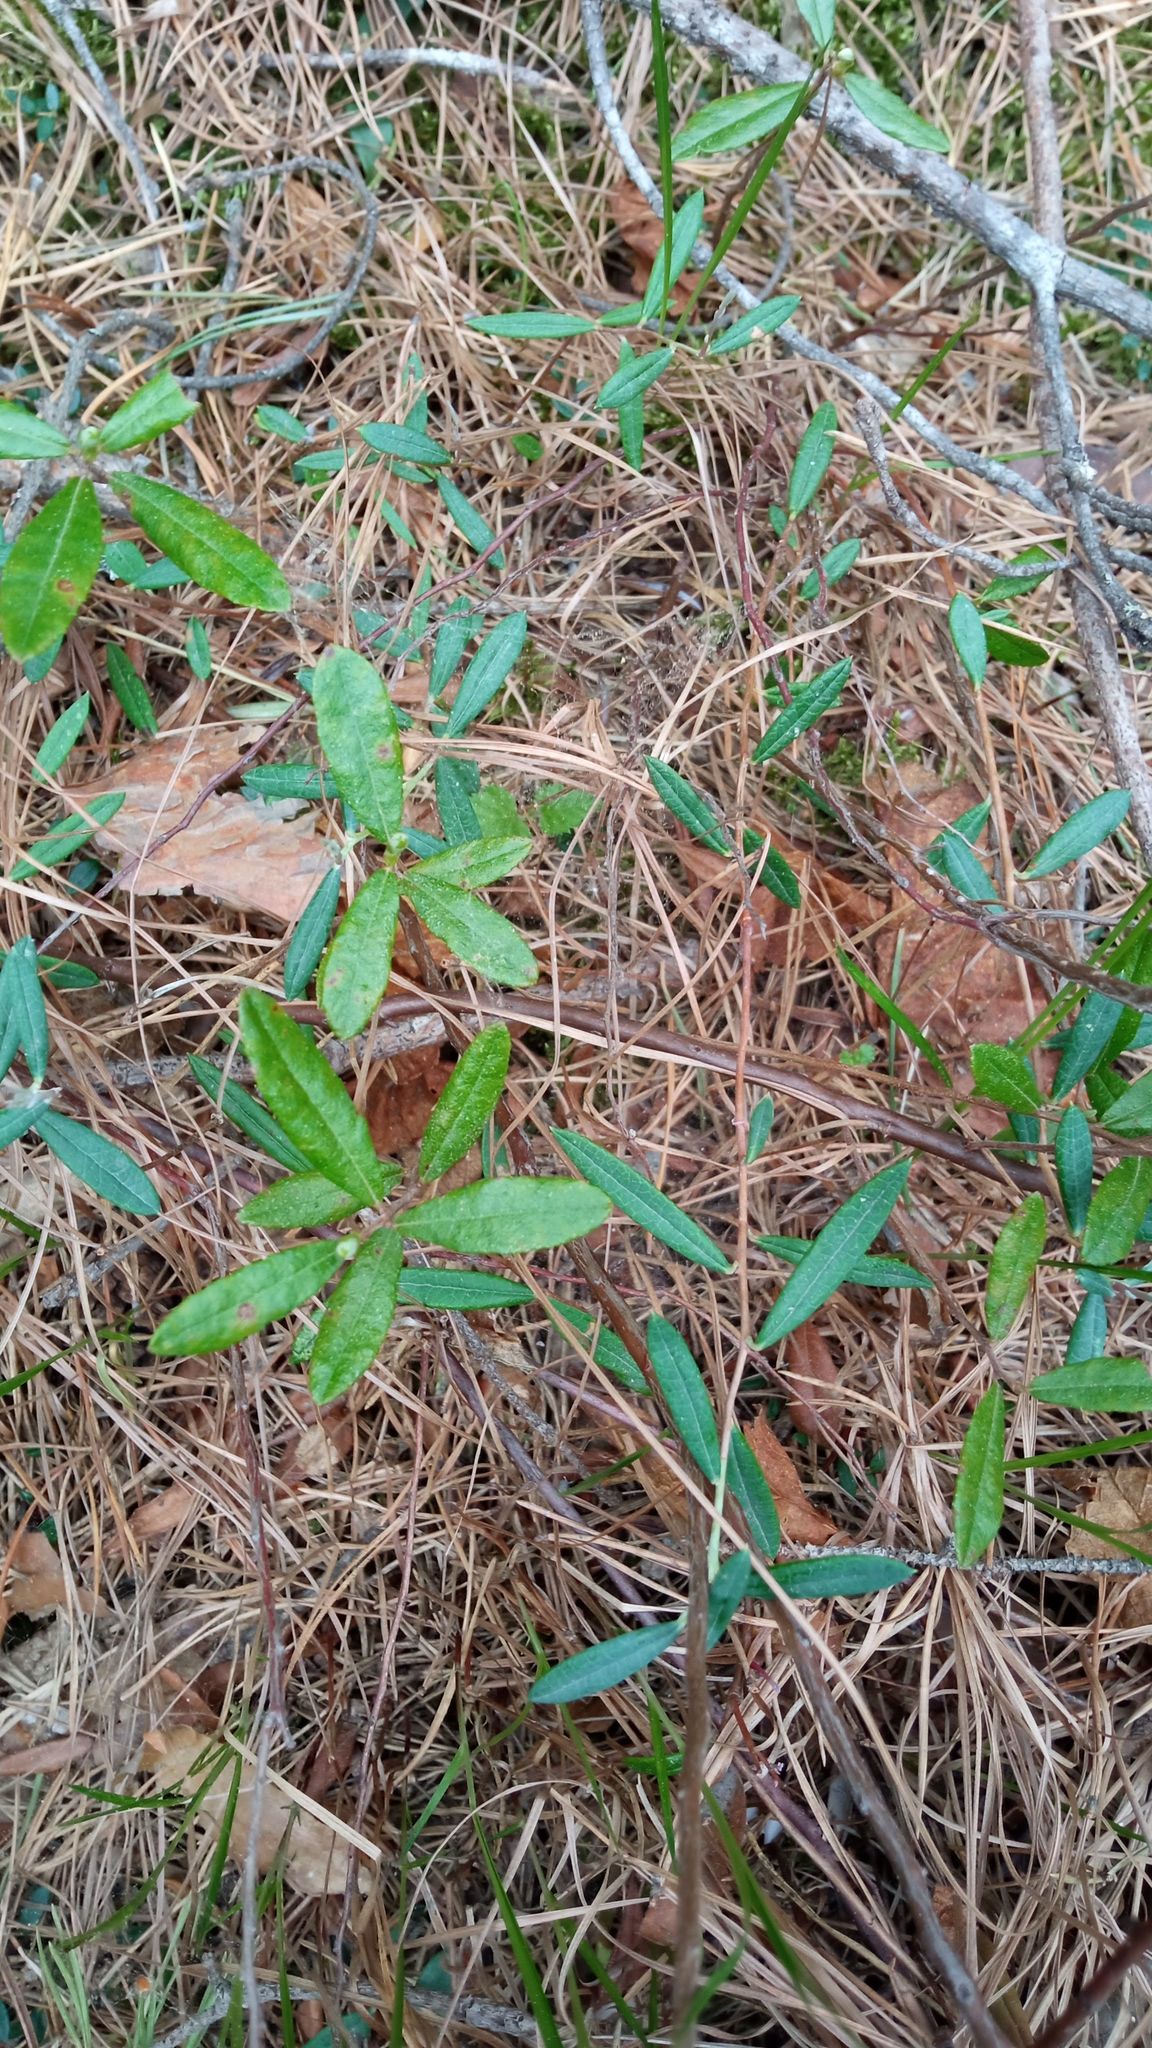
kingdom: Plantae
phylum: Tracheophyta
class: Magnoliopsida
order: Ericales
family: Ericaceae
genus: Andromeda
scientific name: Andromeda polifolia
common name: Bog-rosemary
